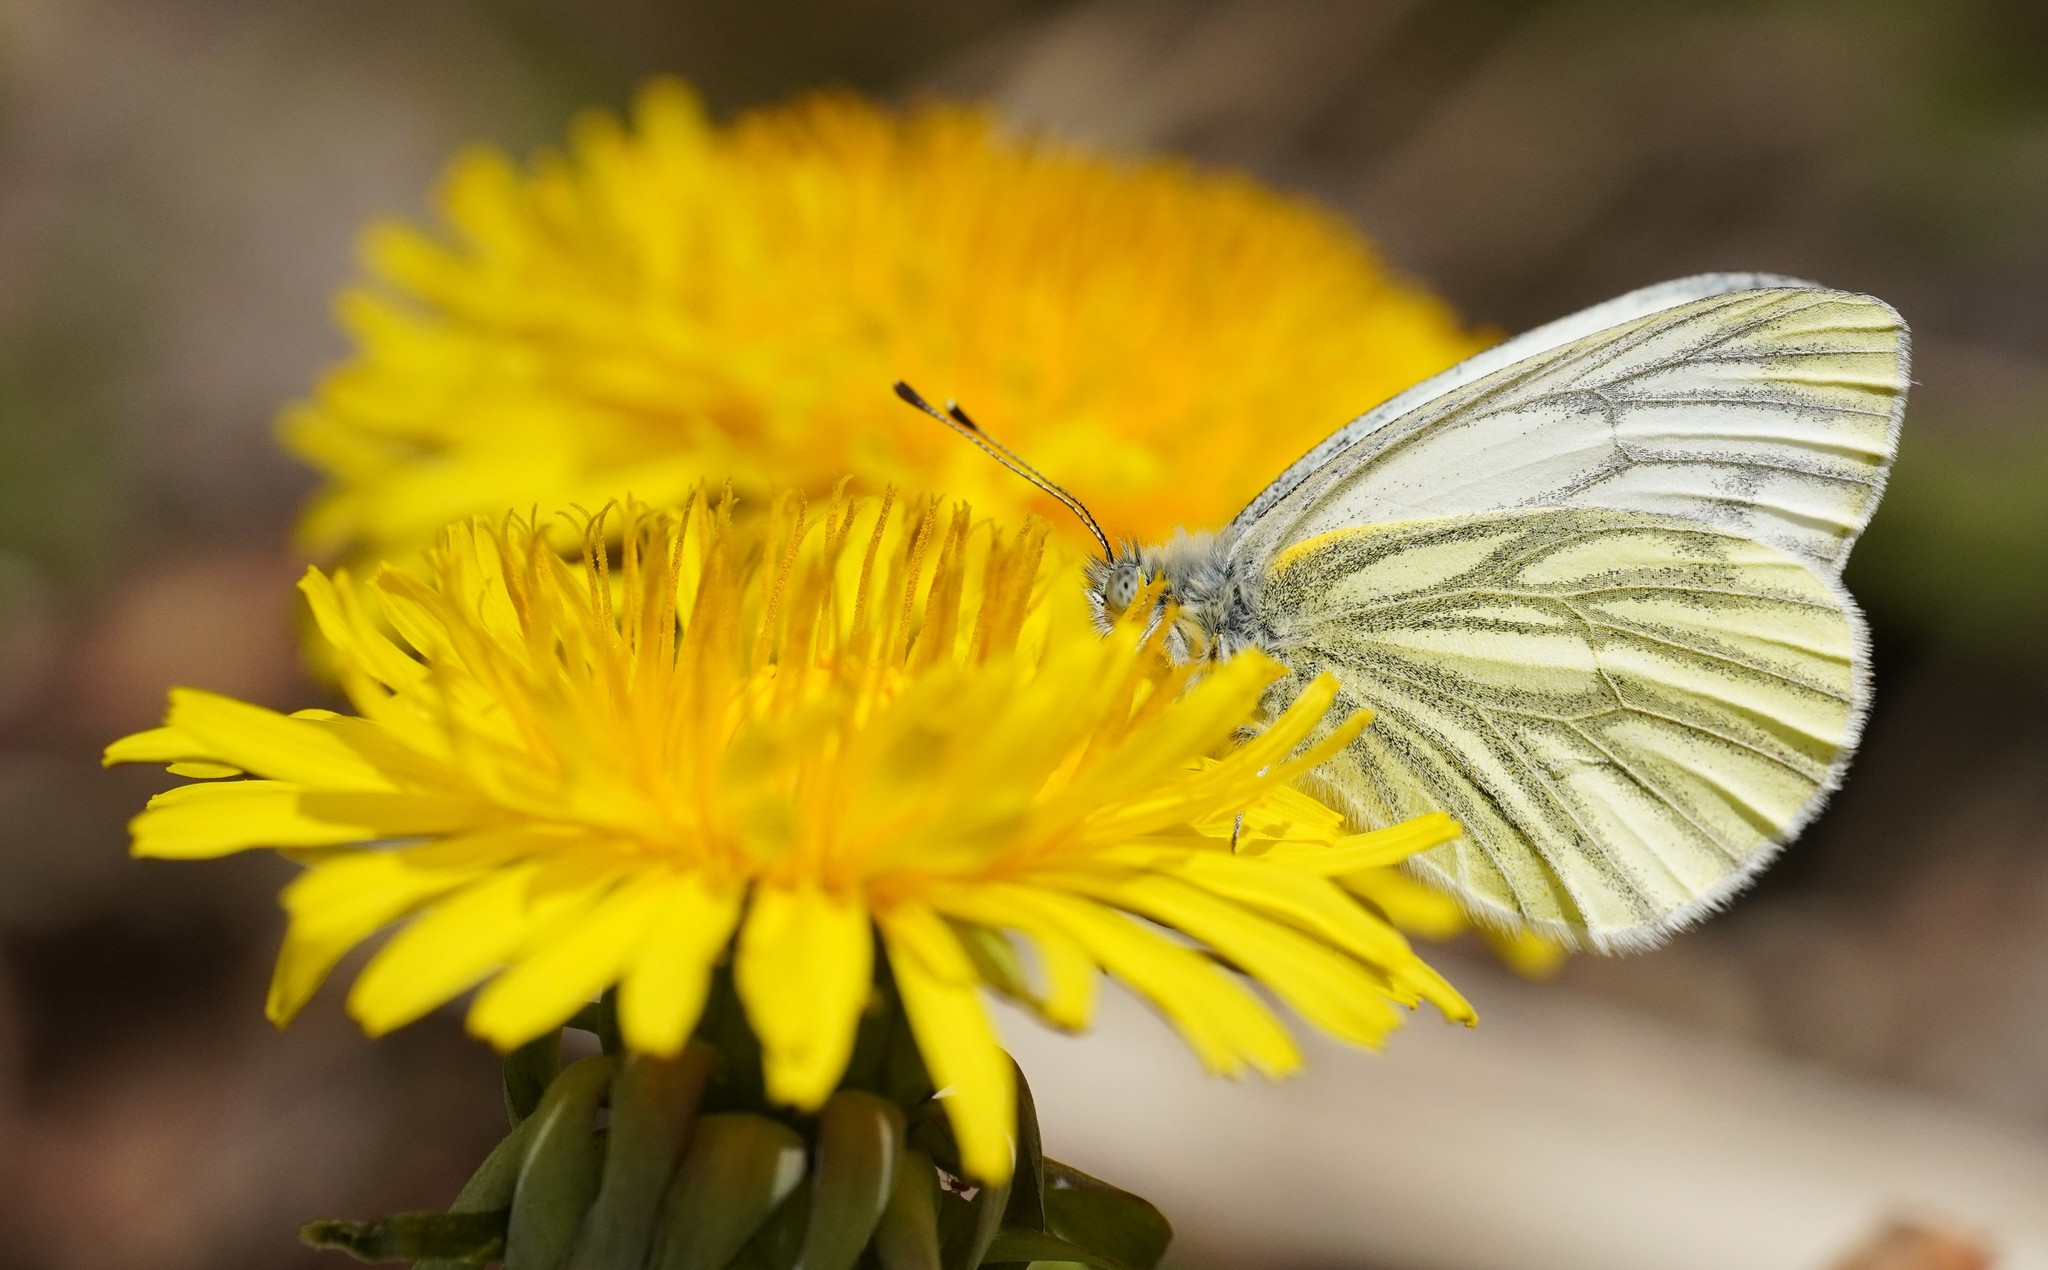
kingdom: Animalia
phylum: Arthropoda
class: Insecta
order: Lepidoptera
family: Pieridae
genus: Pieris
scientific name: Pieris napi
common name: Green-veined white
